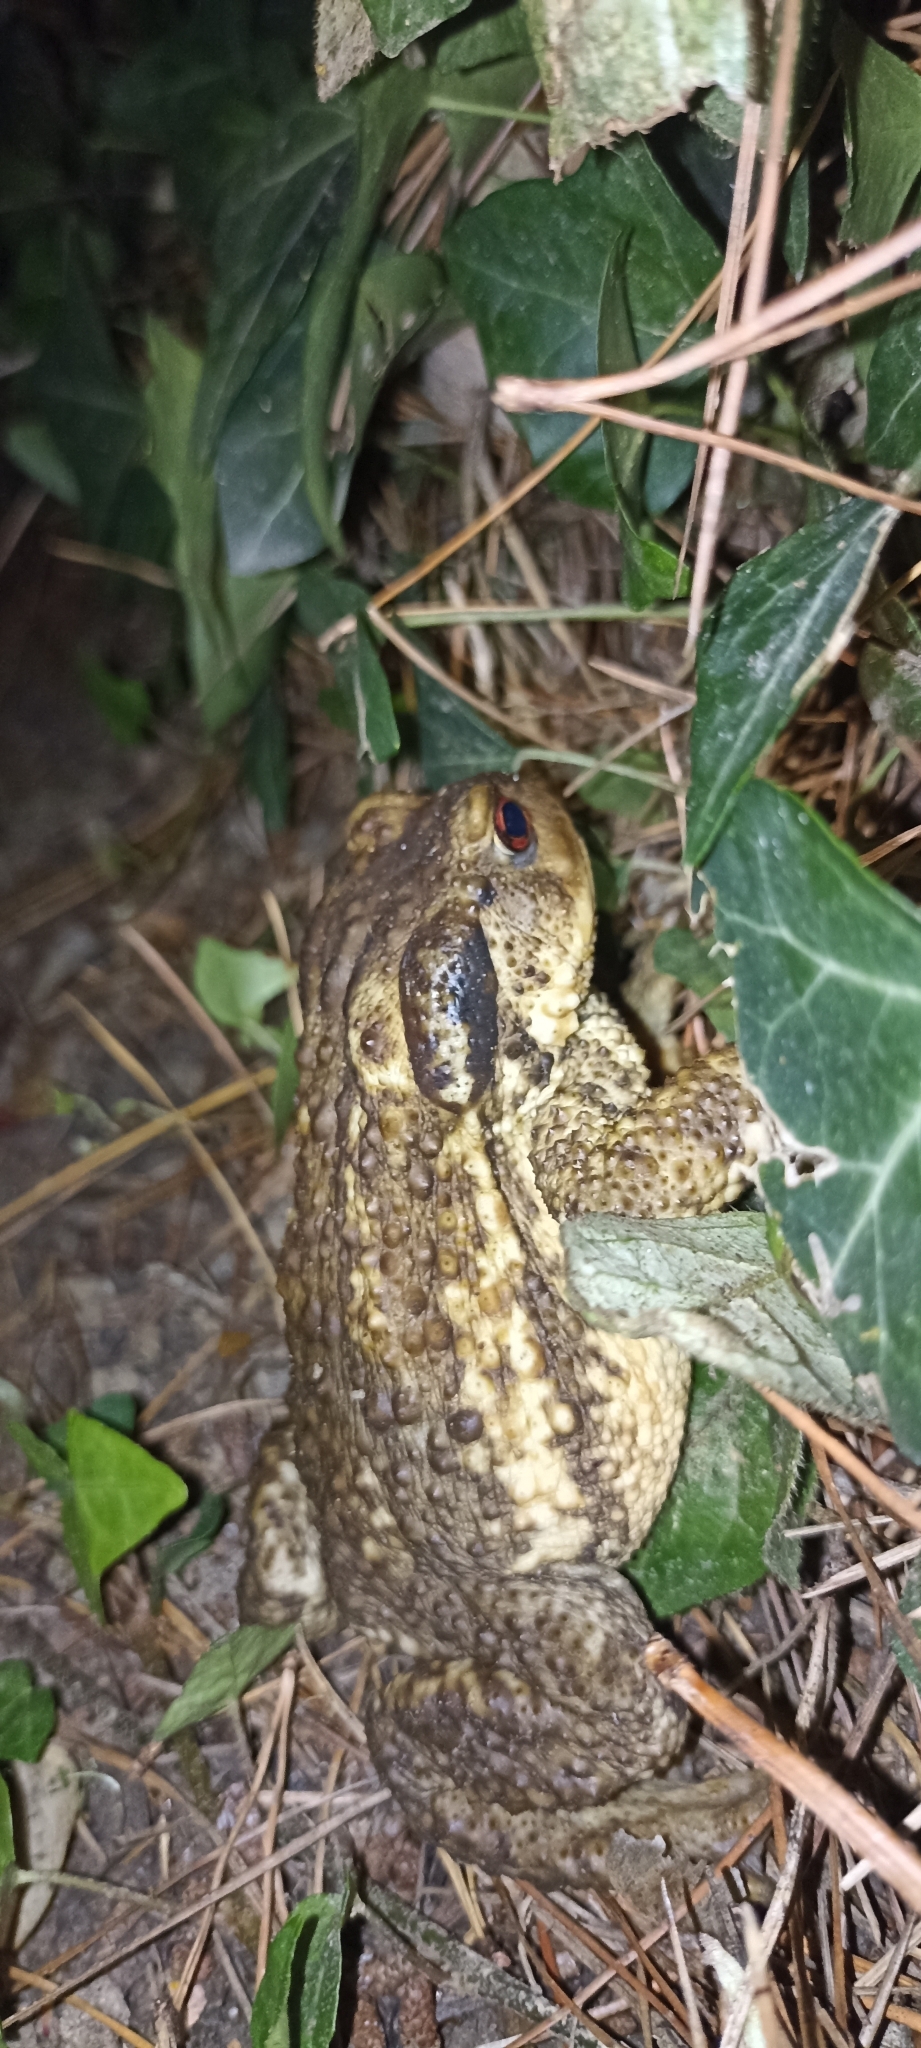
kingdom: Animalia
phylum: Chordata
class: Amphibia
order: Anura
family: Bufonidae
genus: Bufo
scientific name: Bufo spinosus
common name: Western common toad
